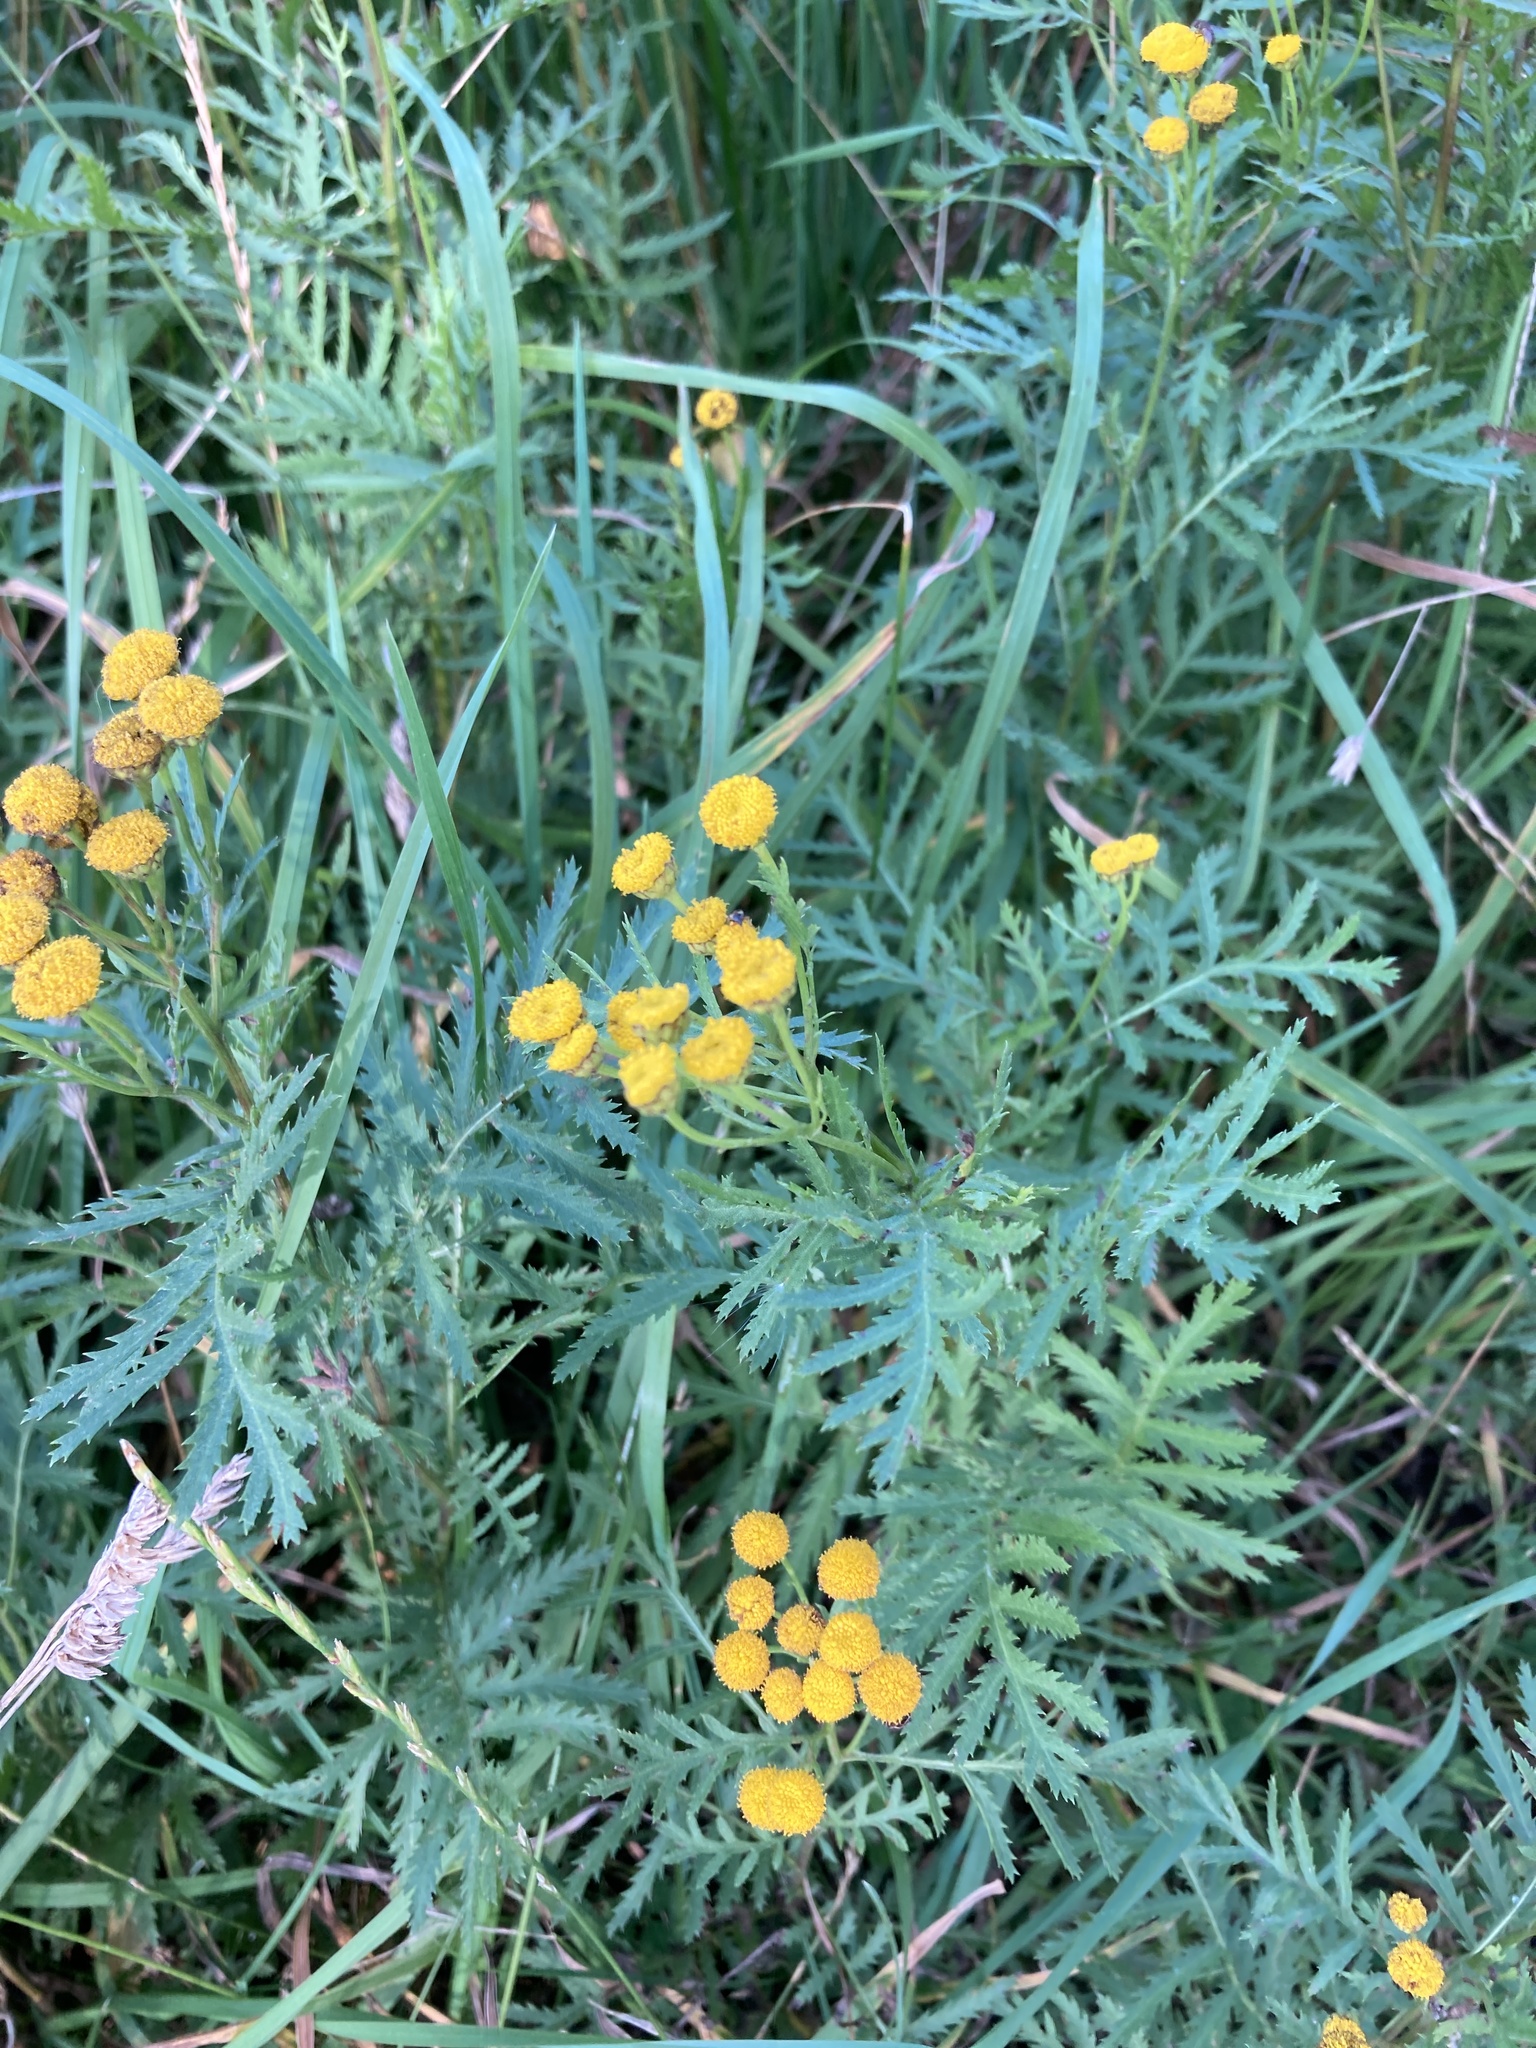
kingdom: Plantae
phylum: Tracheophyta
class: Magnoliopsida
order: Asterales
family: Asteraceae
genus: Tanacetum
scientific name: Tanacetum vulgare
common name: Common tansy
